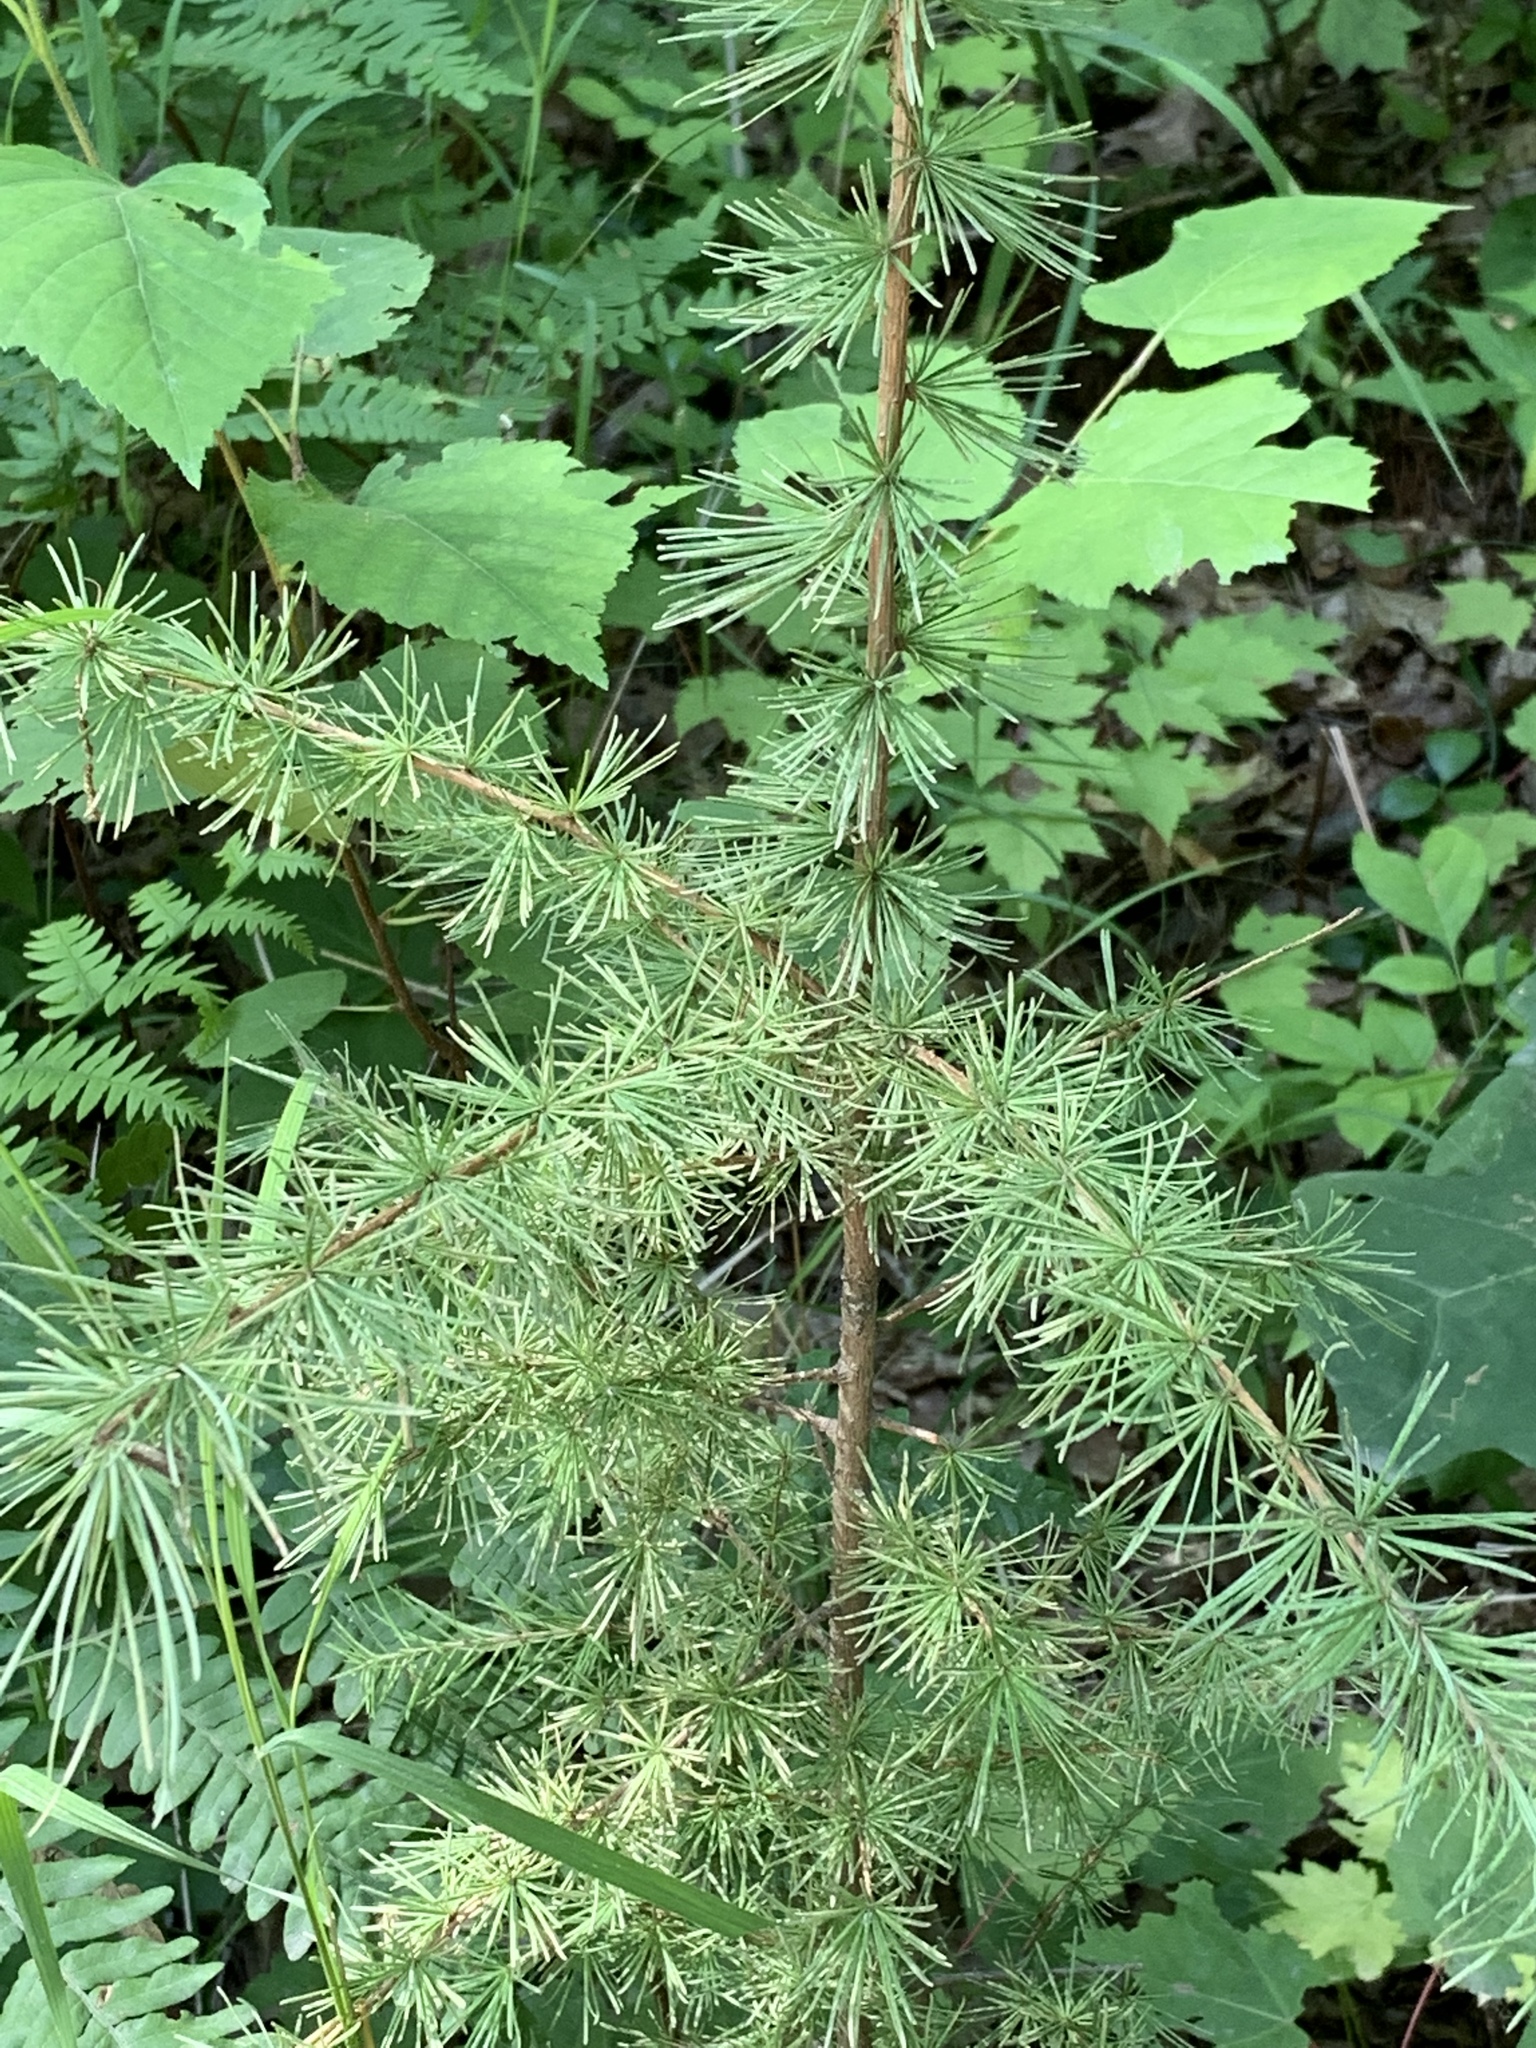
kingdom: Plantae
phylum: Tracheophyta
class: Pinopsida
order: Pinales
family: Pinaceae
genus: Larix
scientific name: Larix laricina
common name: American larch
